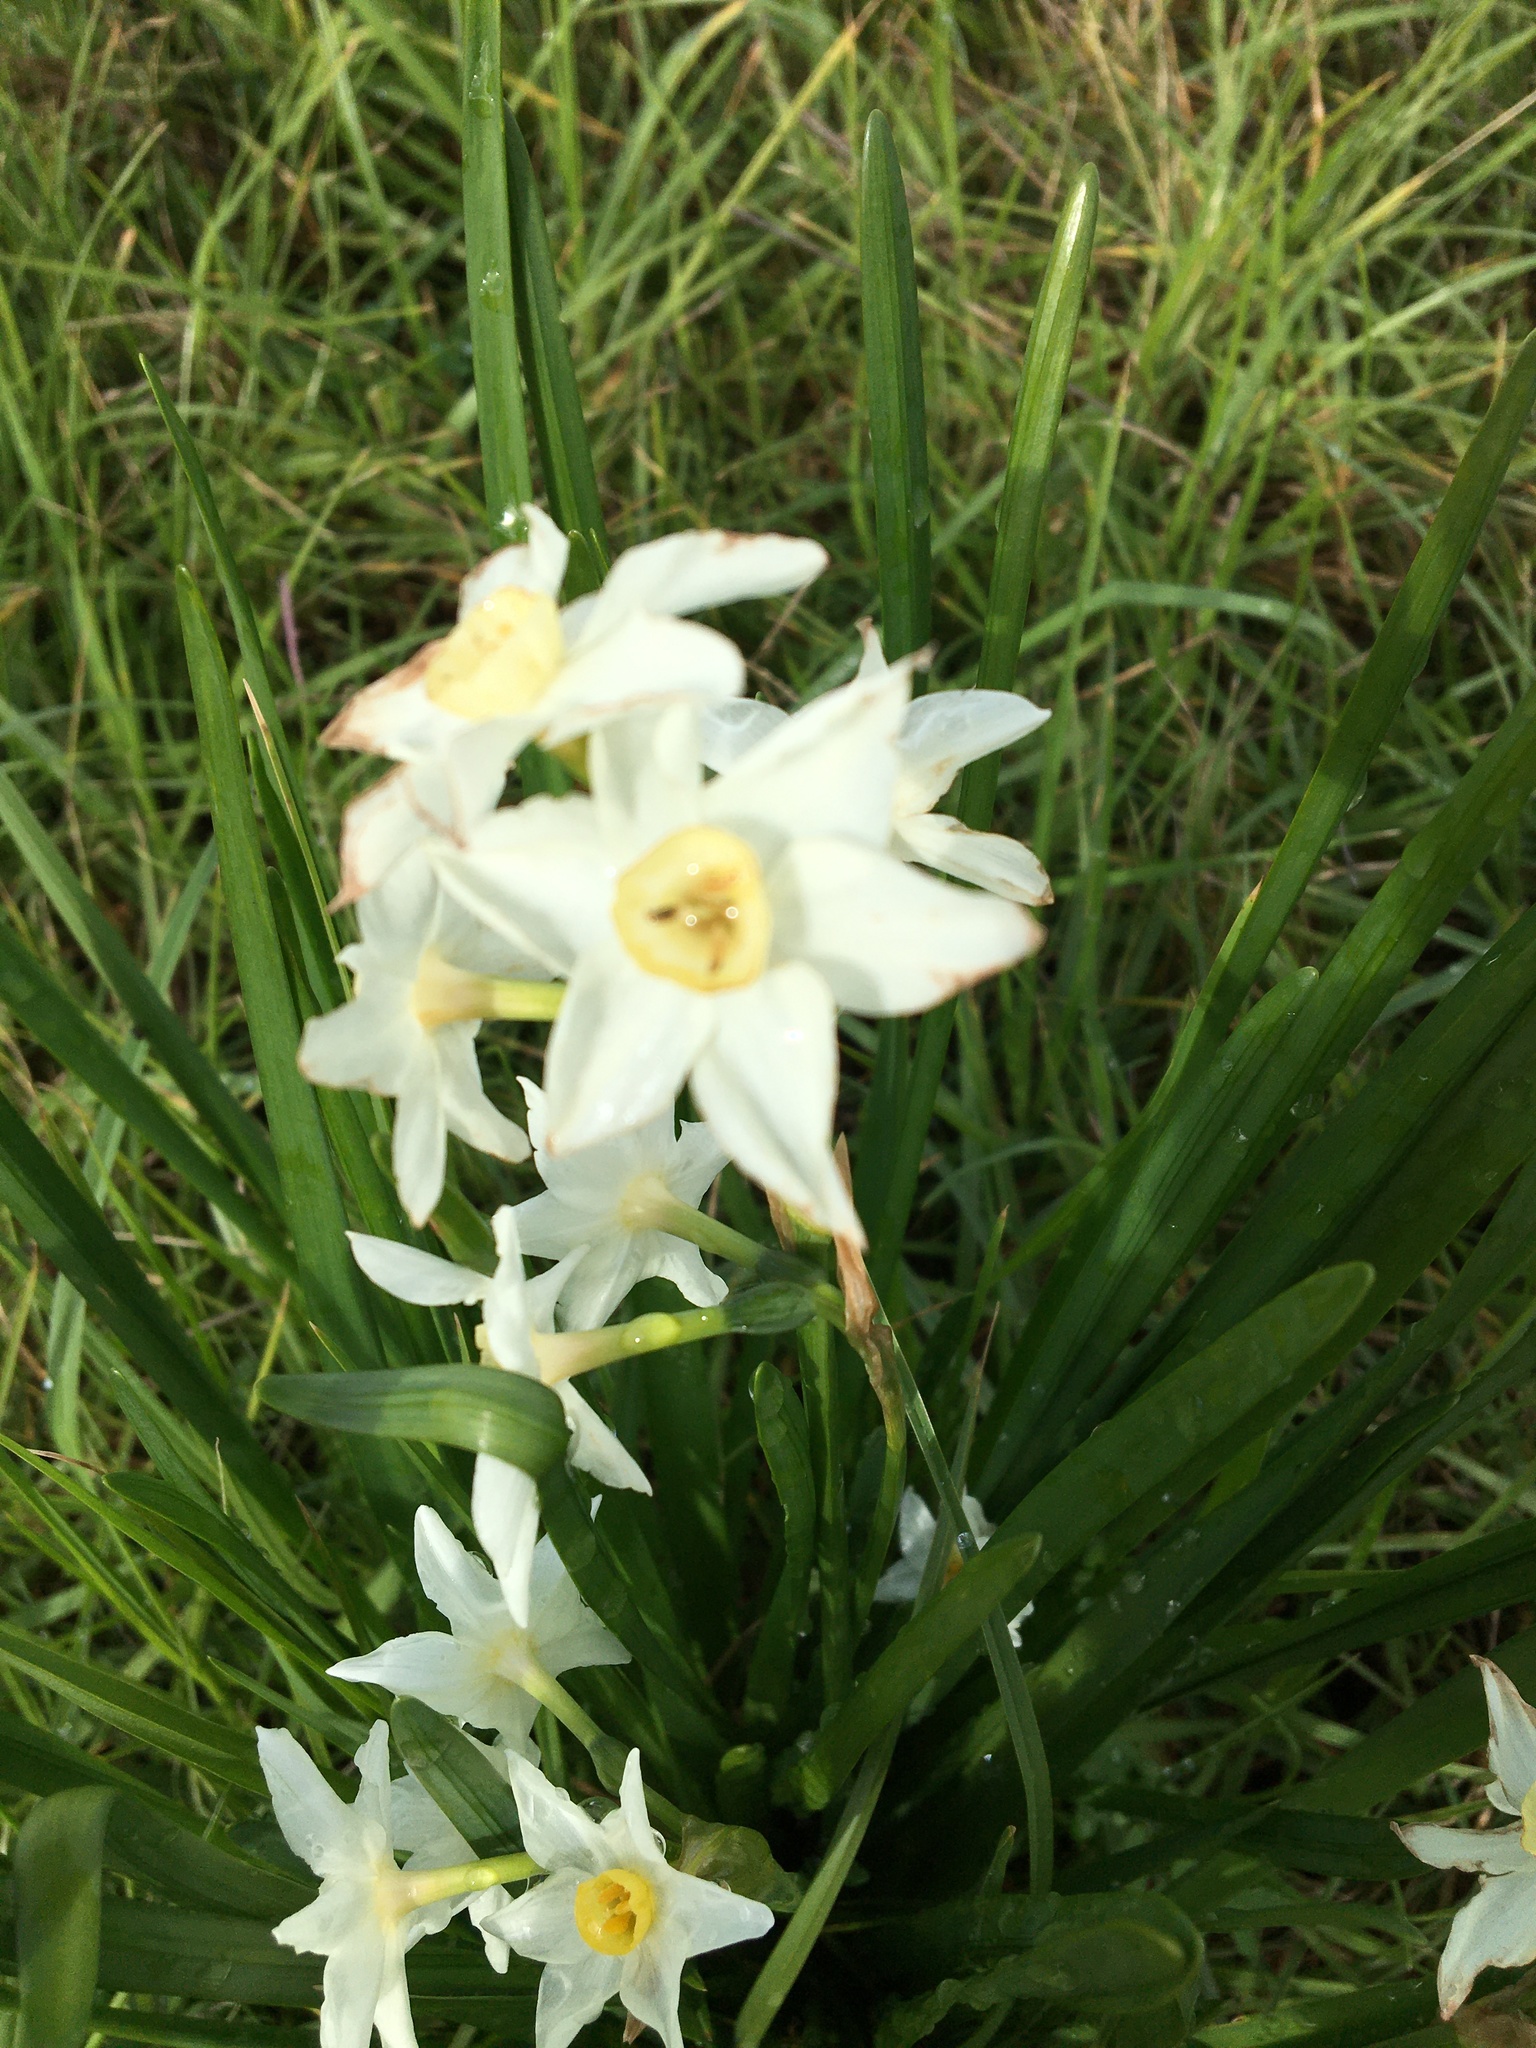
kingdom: Plantae
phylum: Tracheophyta
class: Liliopsida
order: Asparagales
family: Amaryllidaceae
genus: Narcissus
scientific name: Narcissus papyraceus
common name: Paper-white daffodil
